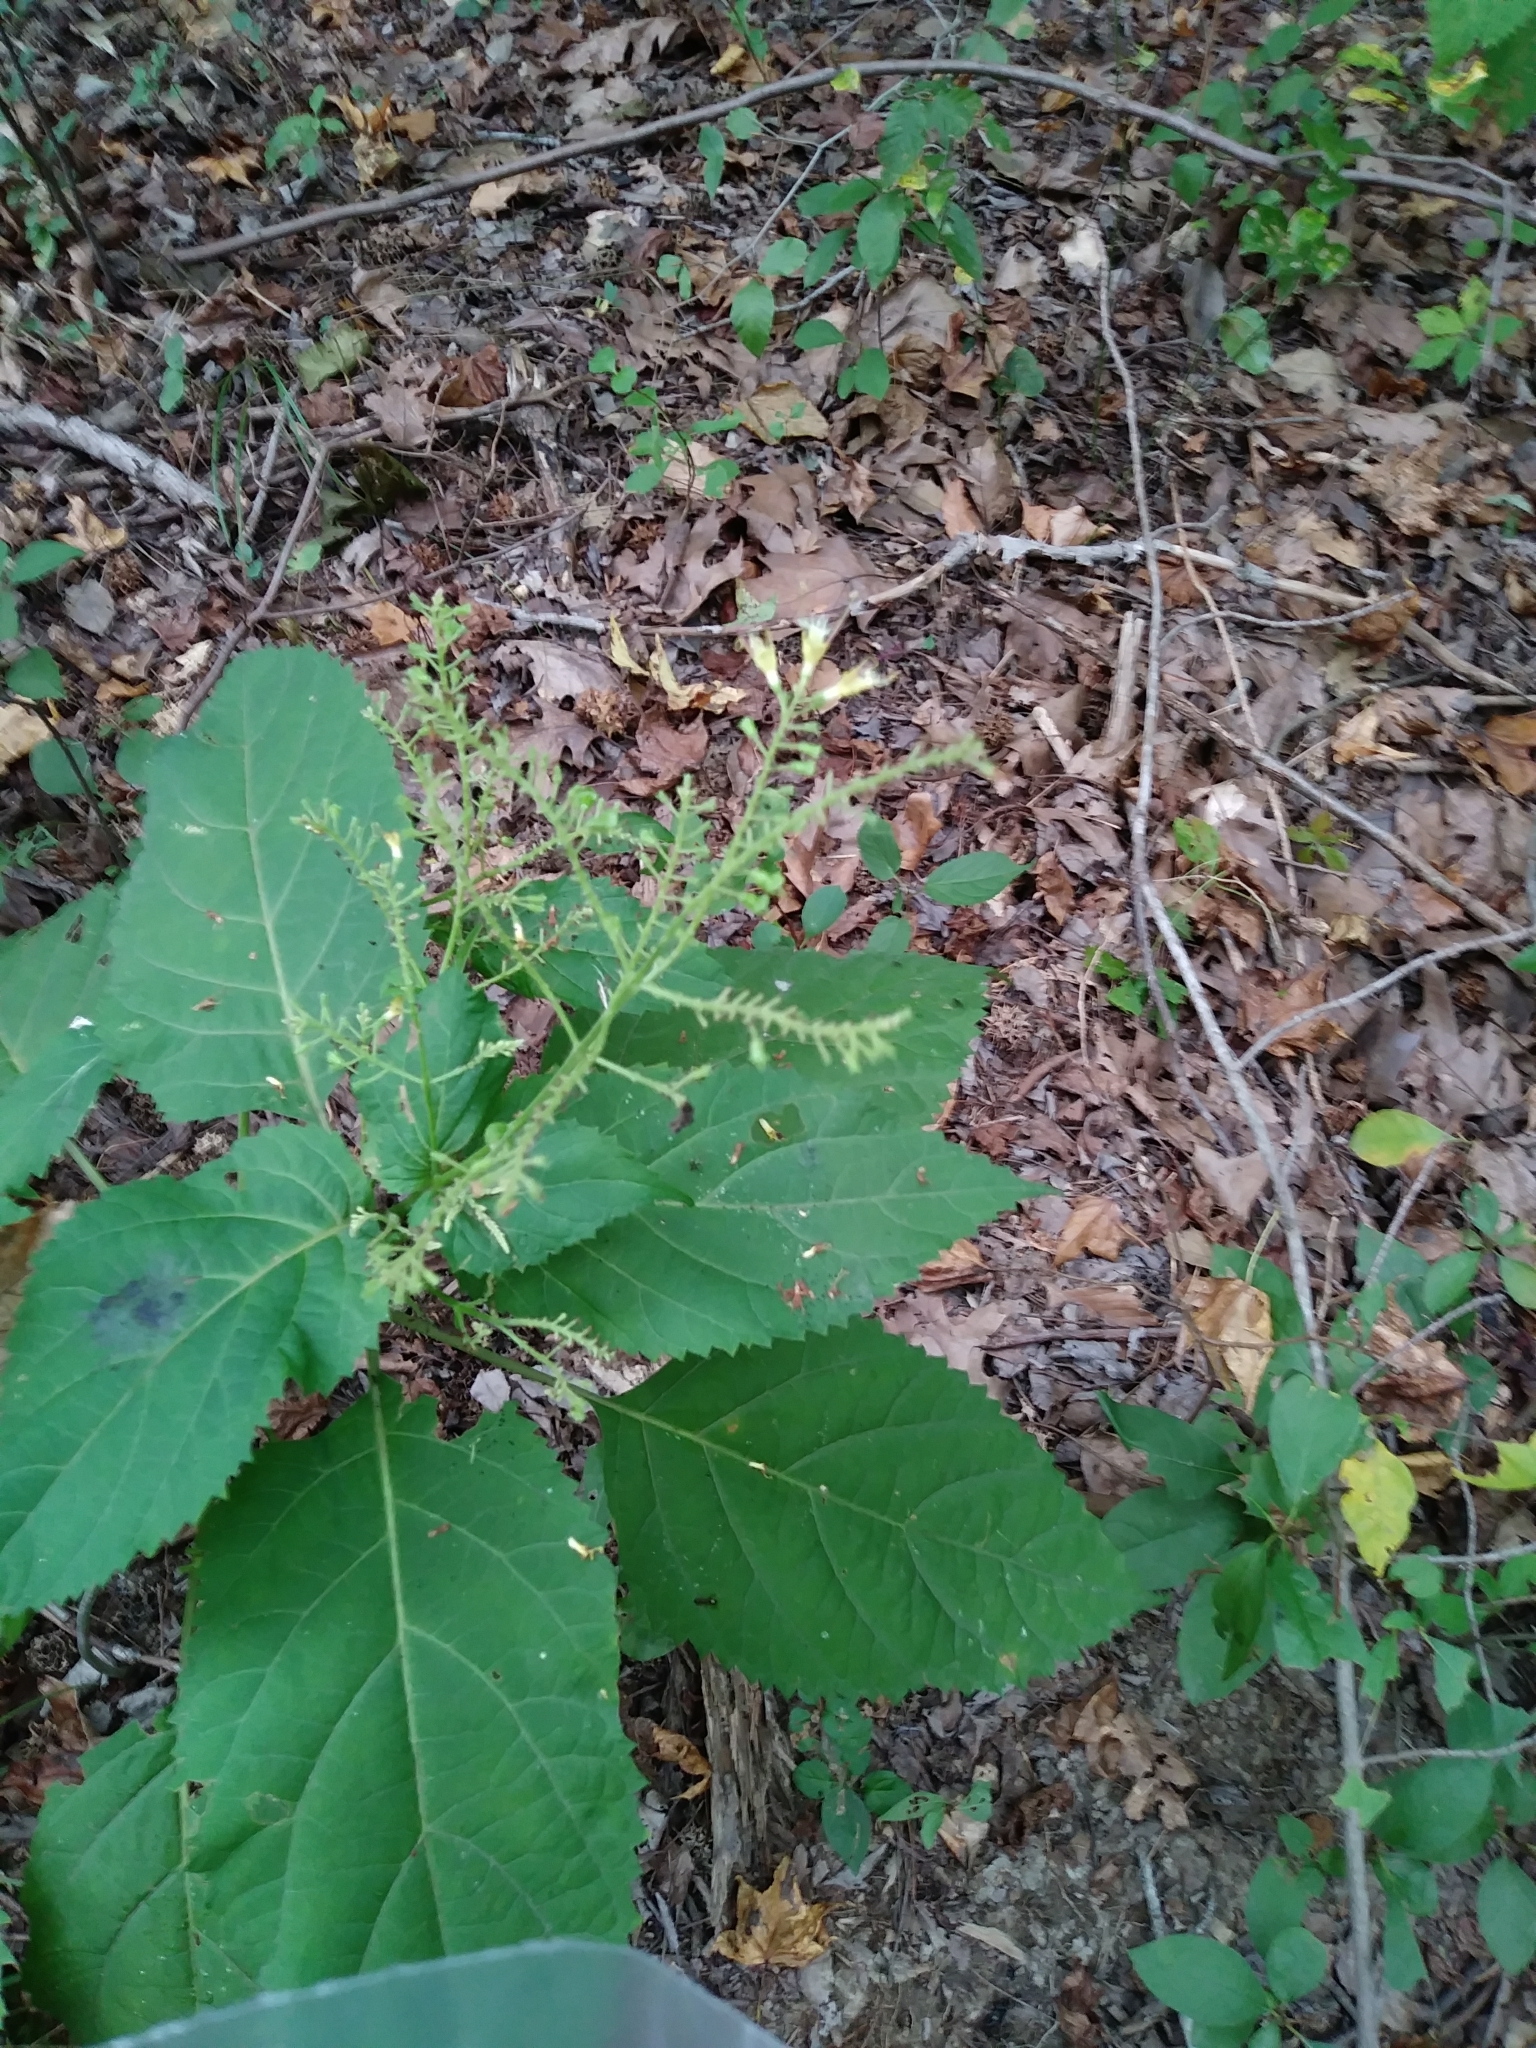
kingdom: Plantae
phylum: Tracheophyta
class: Magnoliopsida
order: Lamiales
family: Lamiaceae
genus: Collinsonia
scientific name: Collinsonia canadensis
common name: Northern horsebalm
